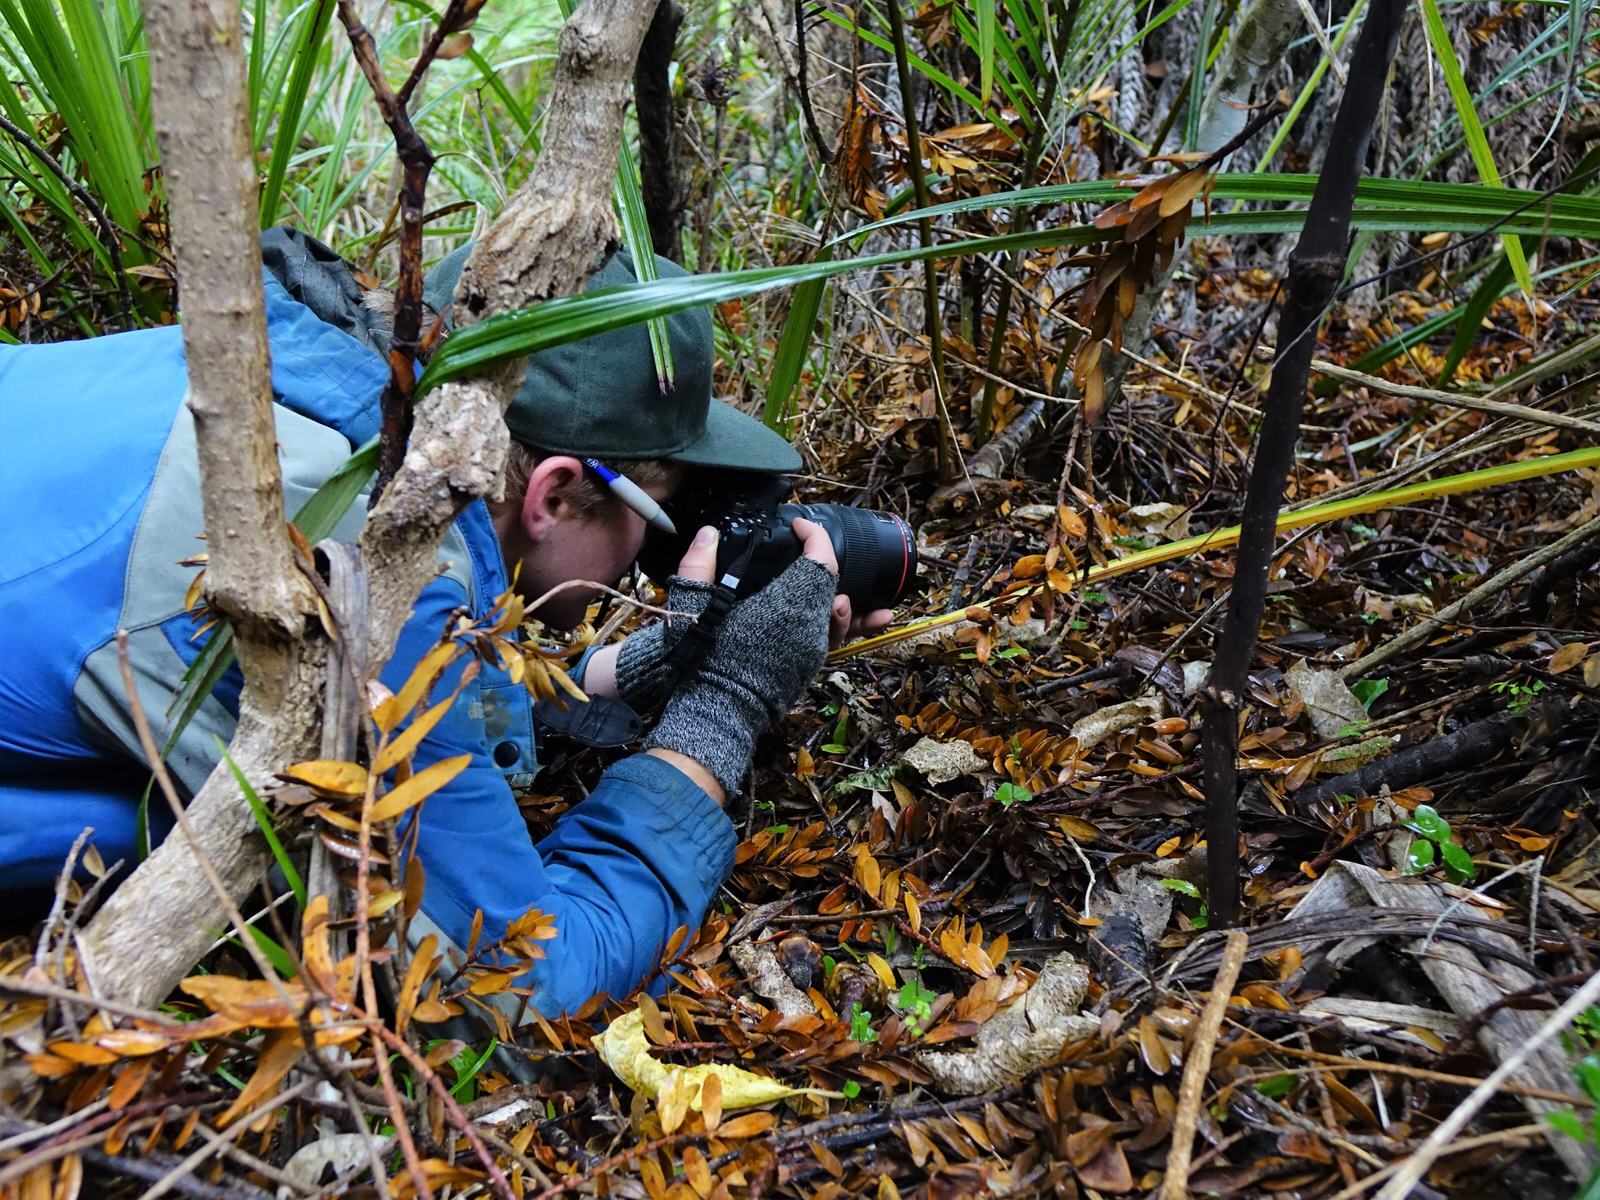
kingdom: Plantae
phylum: Tracheophyta
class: Liliopsida
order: Asparagales
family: Orchidaceae
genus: Acianthus
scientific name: Acianthus sinclairii
